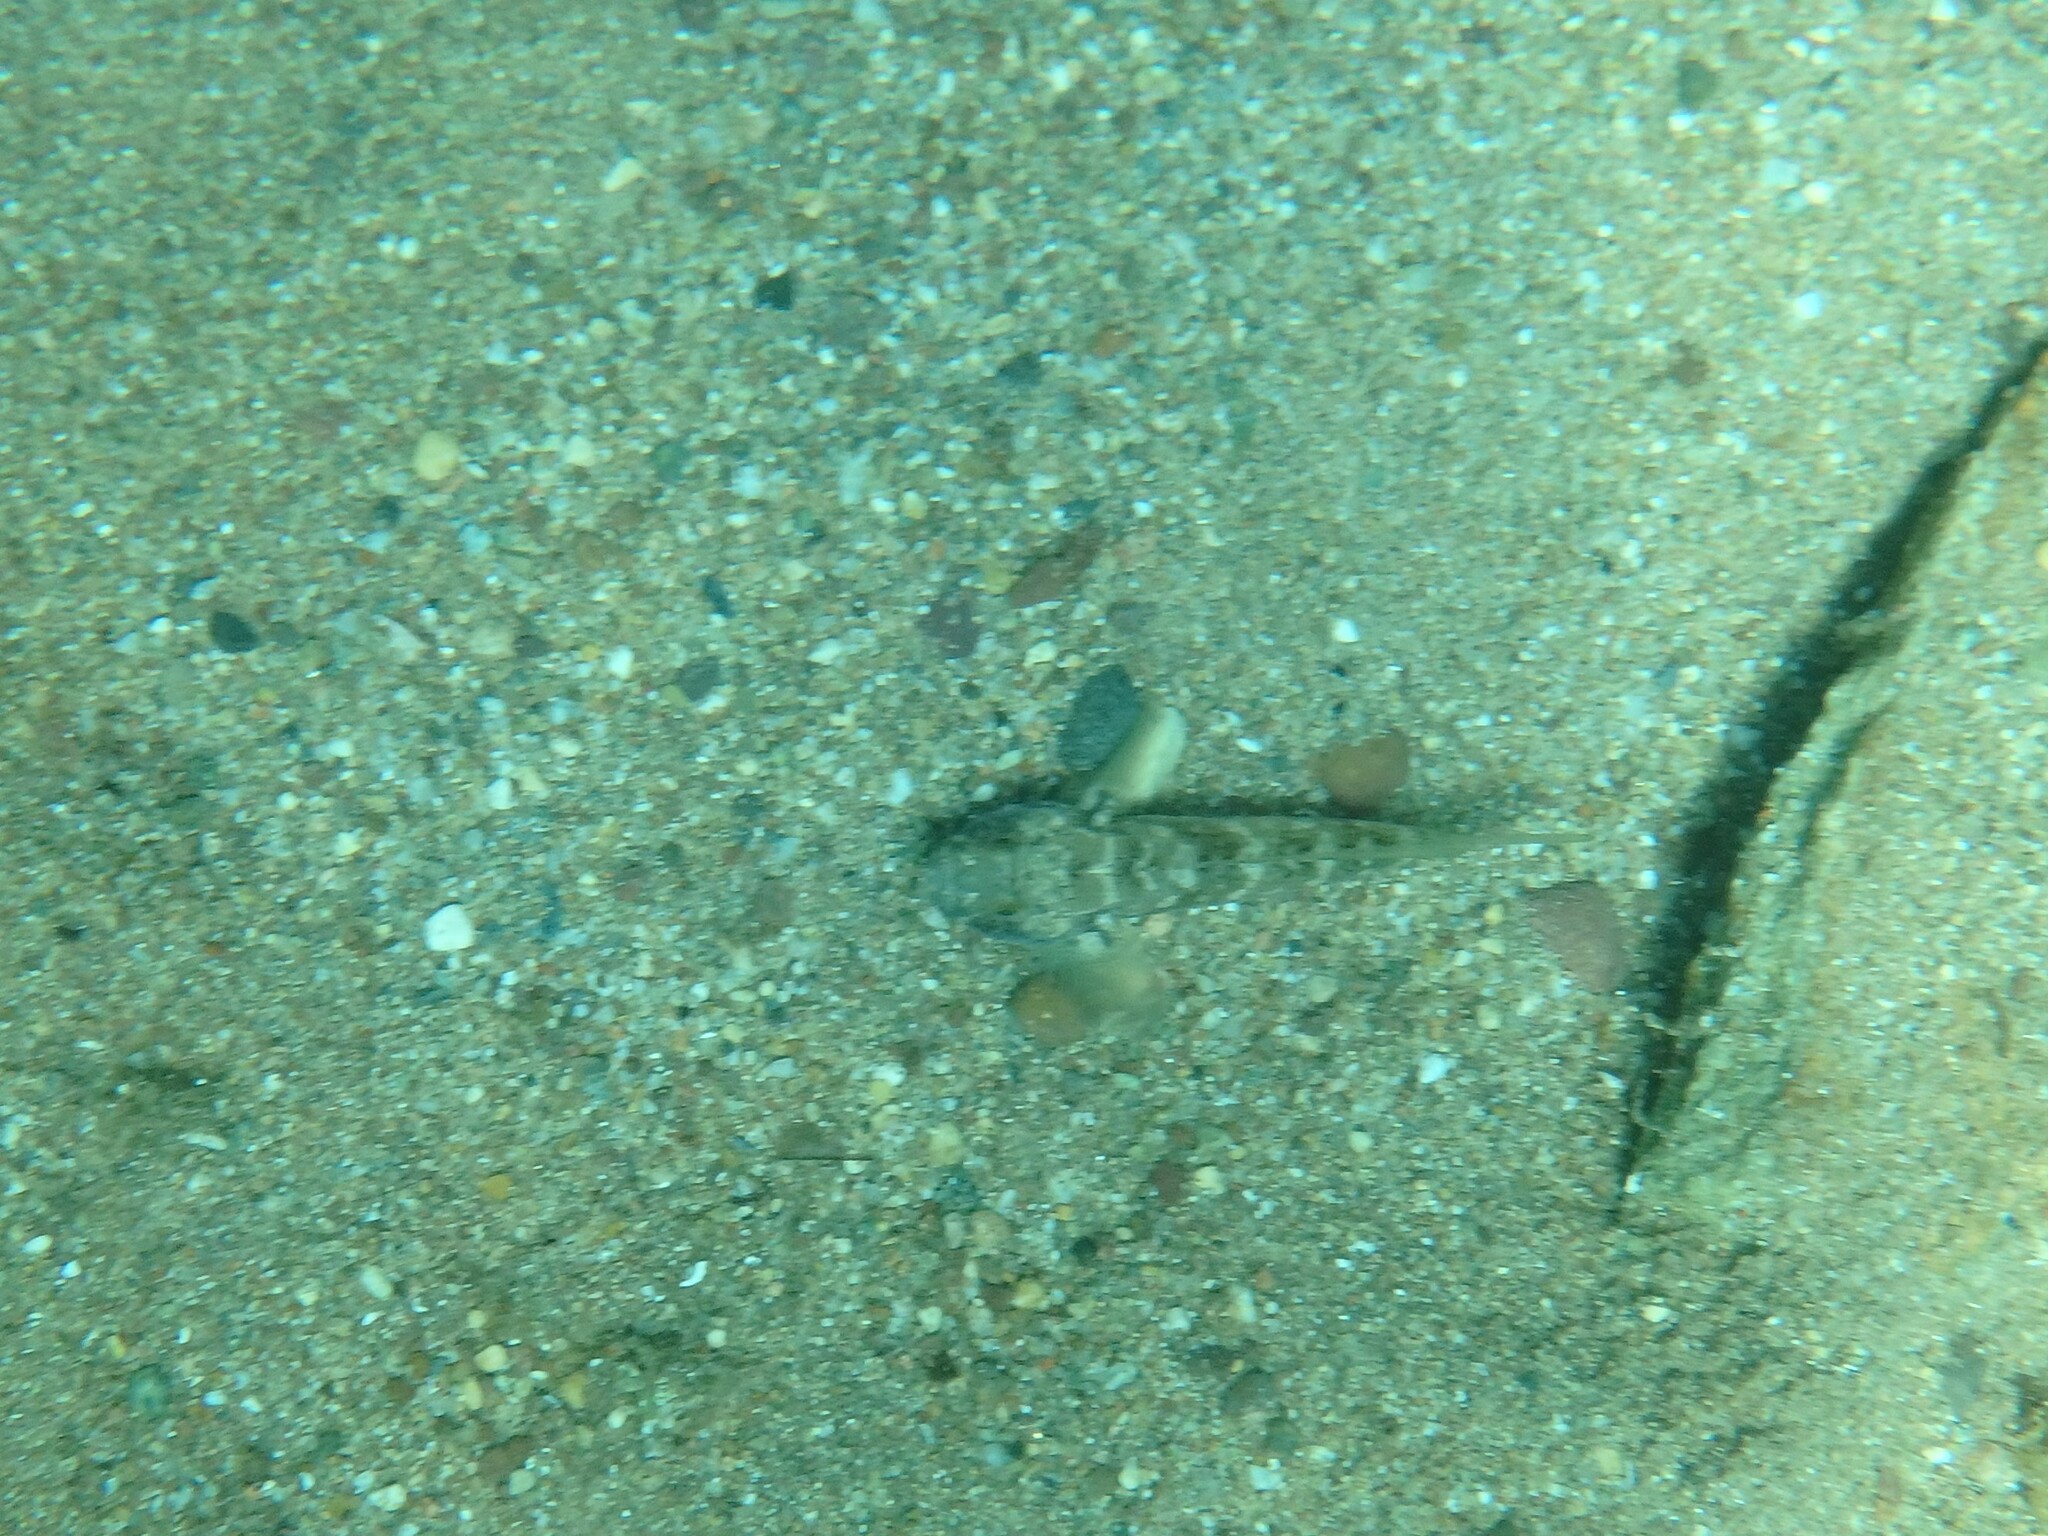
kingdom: Animalia
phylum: Chordata
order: Perciformes
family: Gobiidae
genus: Gobius
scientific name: Gobius niger
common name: Black goby
